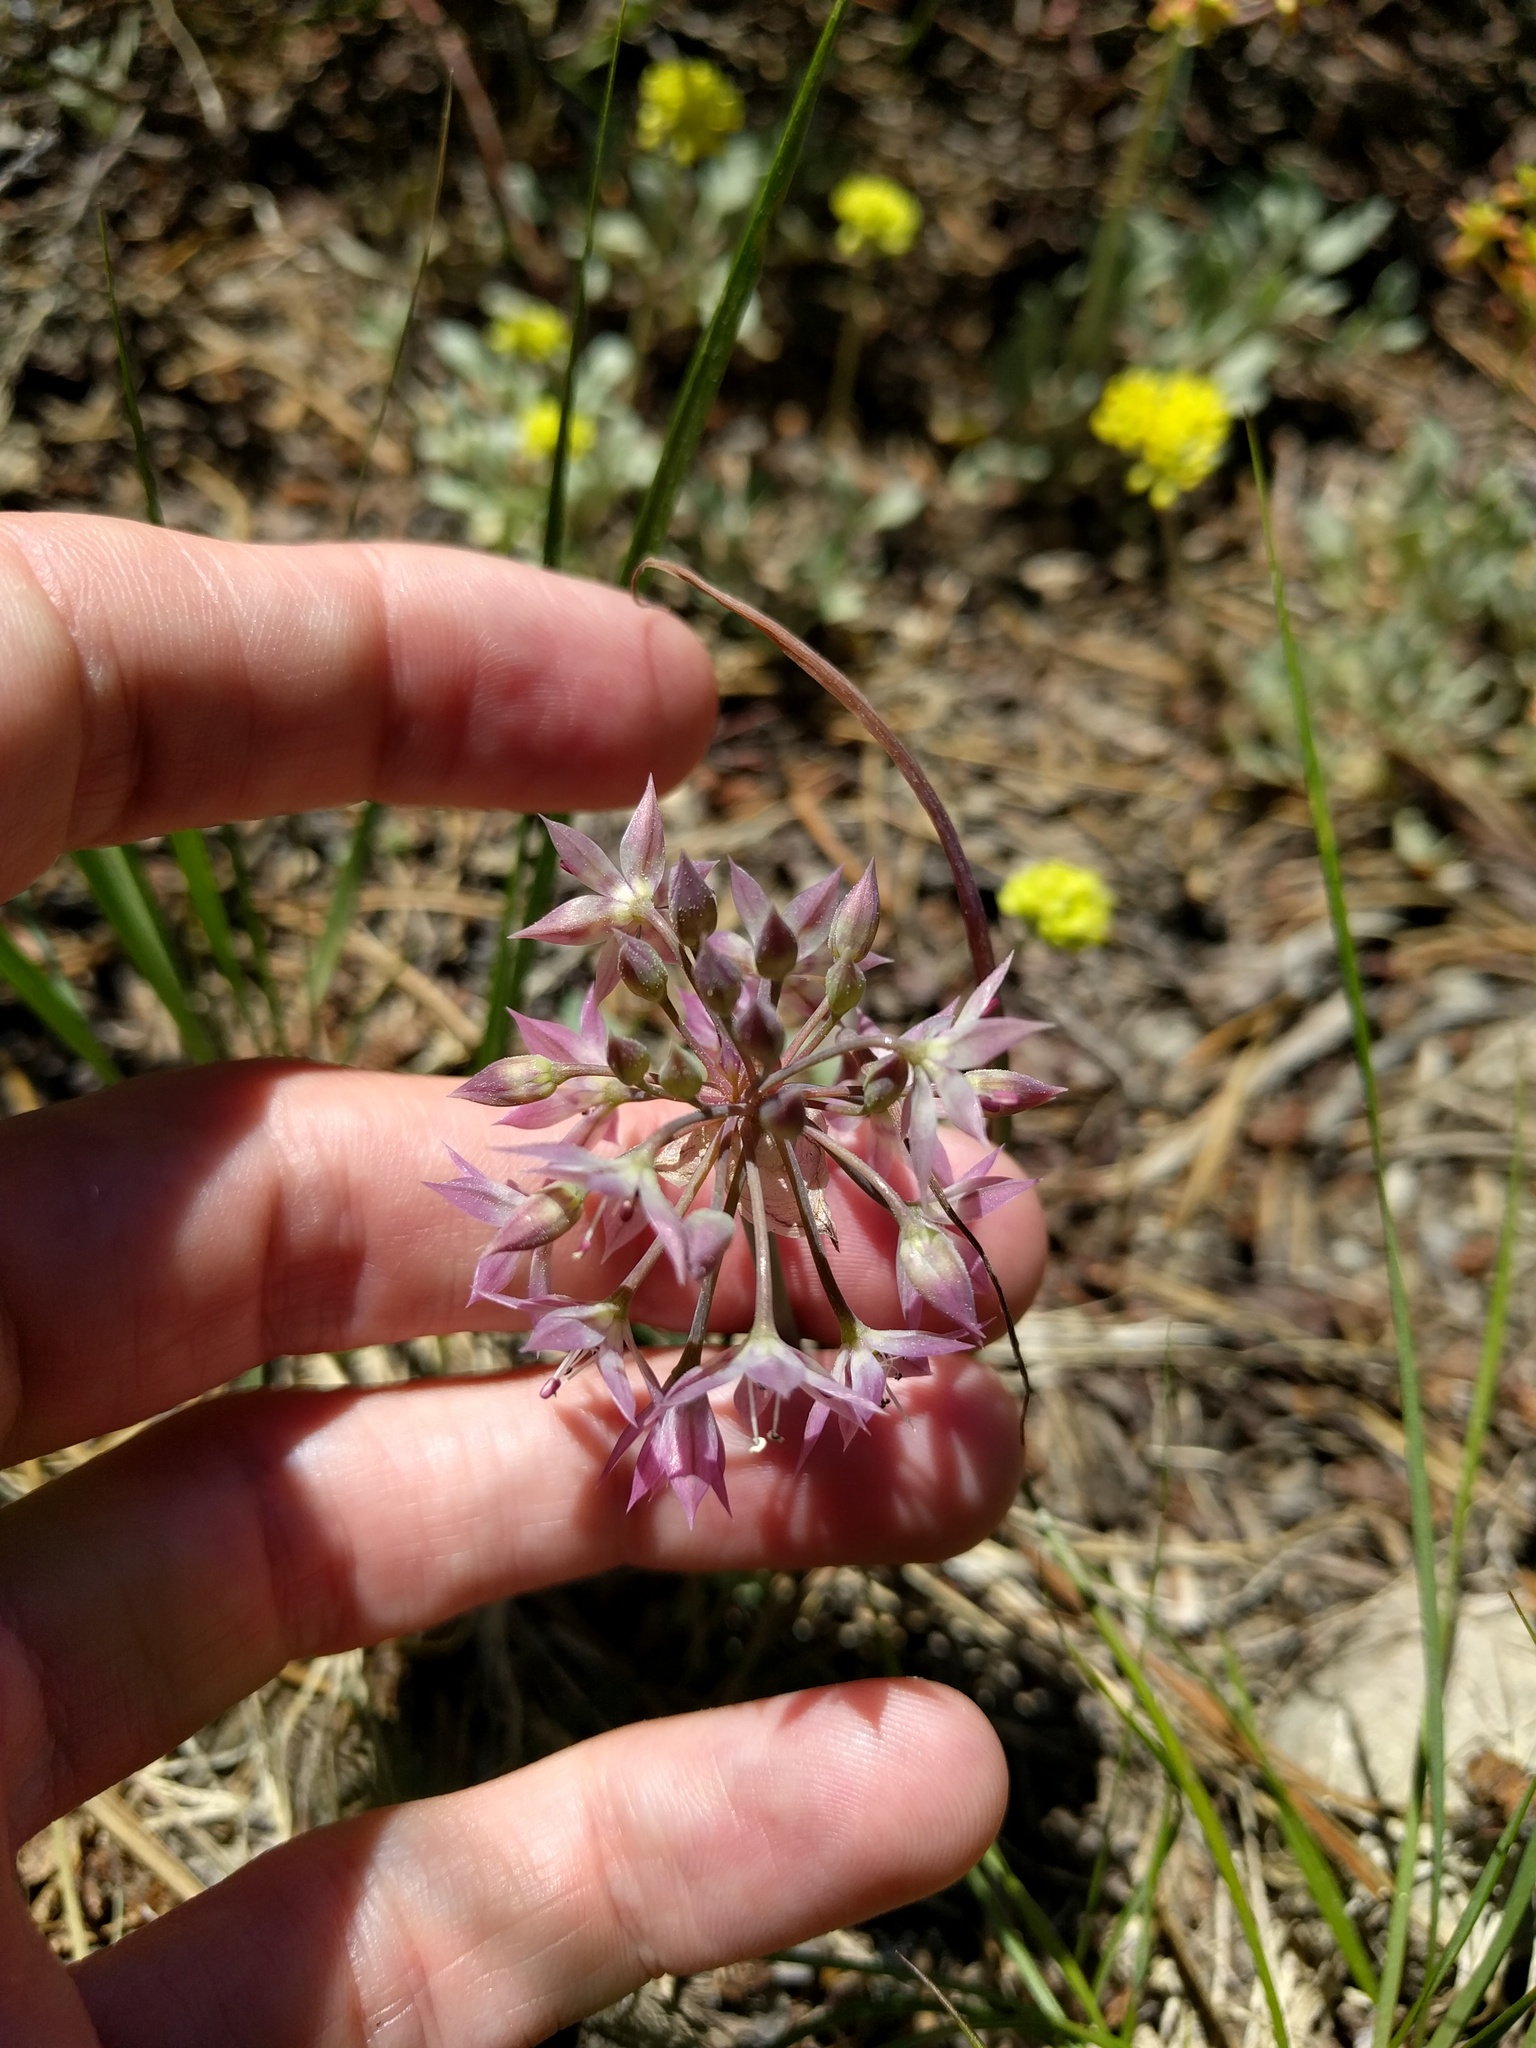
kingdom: Plantae
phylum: Tracheophyta
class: Liliopsida
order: Asparagales
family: Amaryllidaceae
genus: Allium
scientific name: Allium campanulatum
